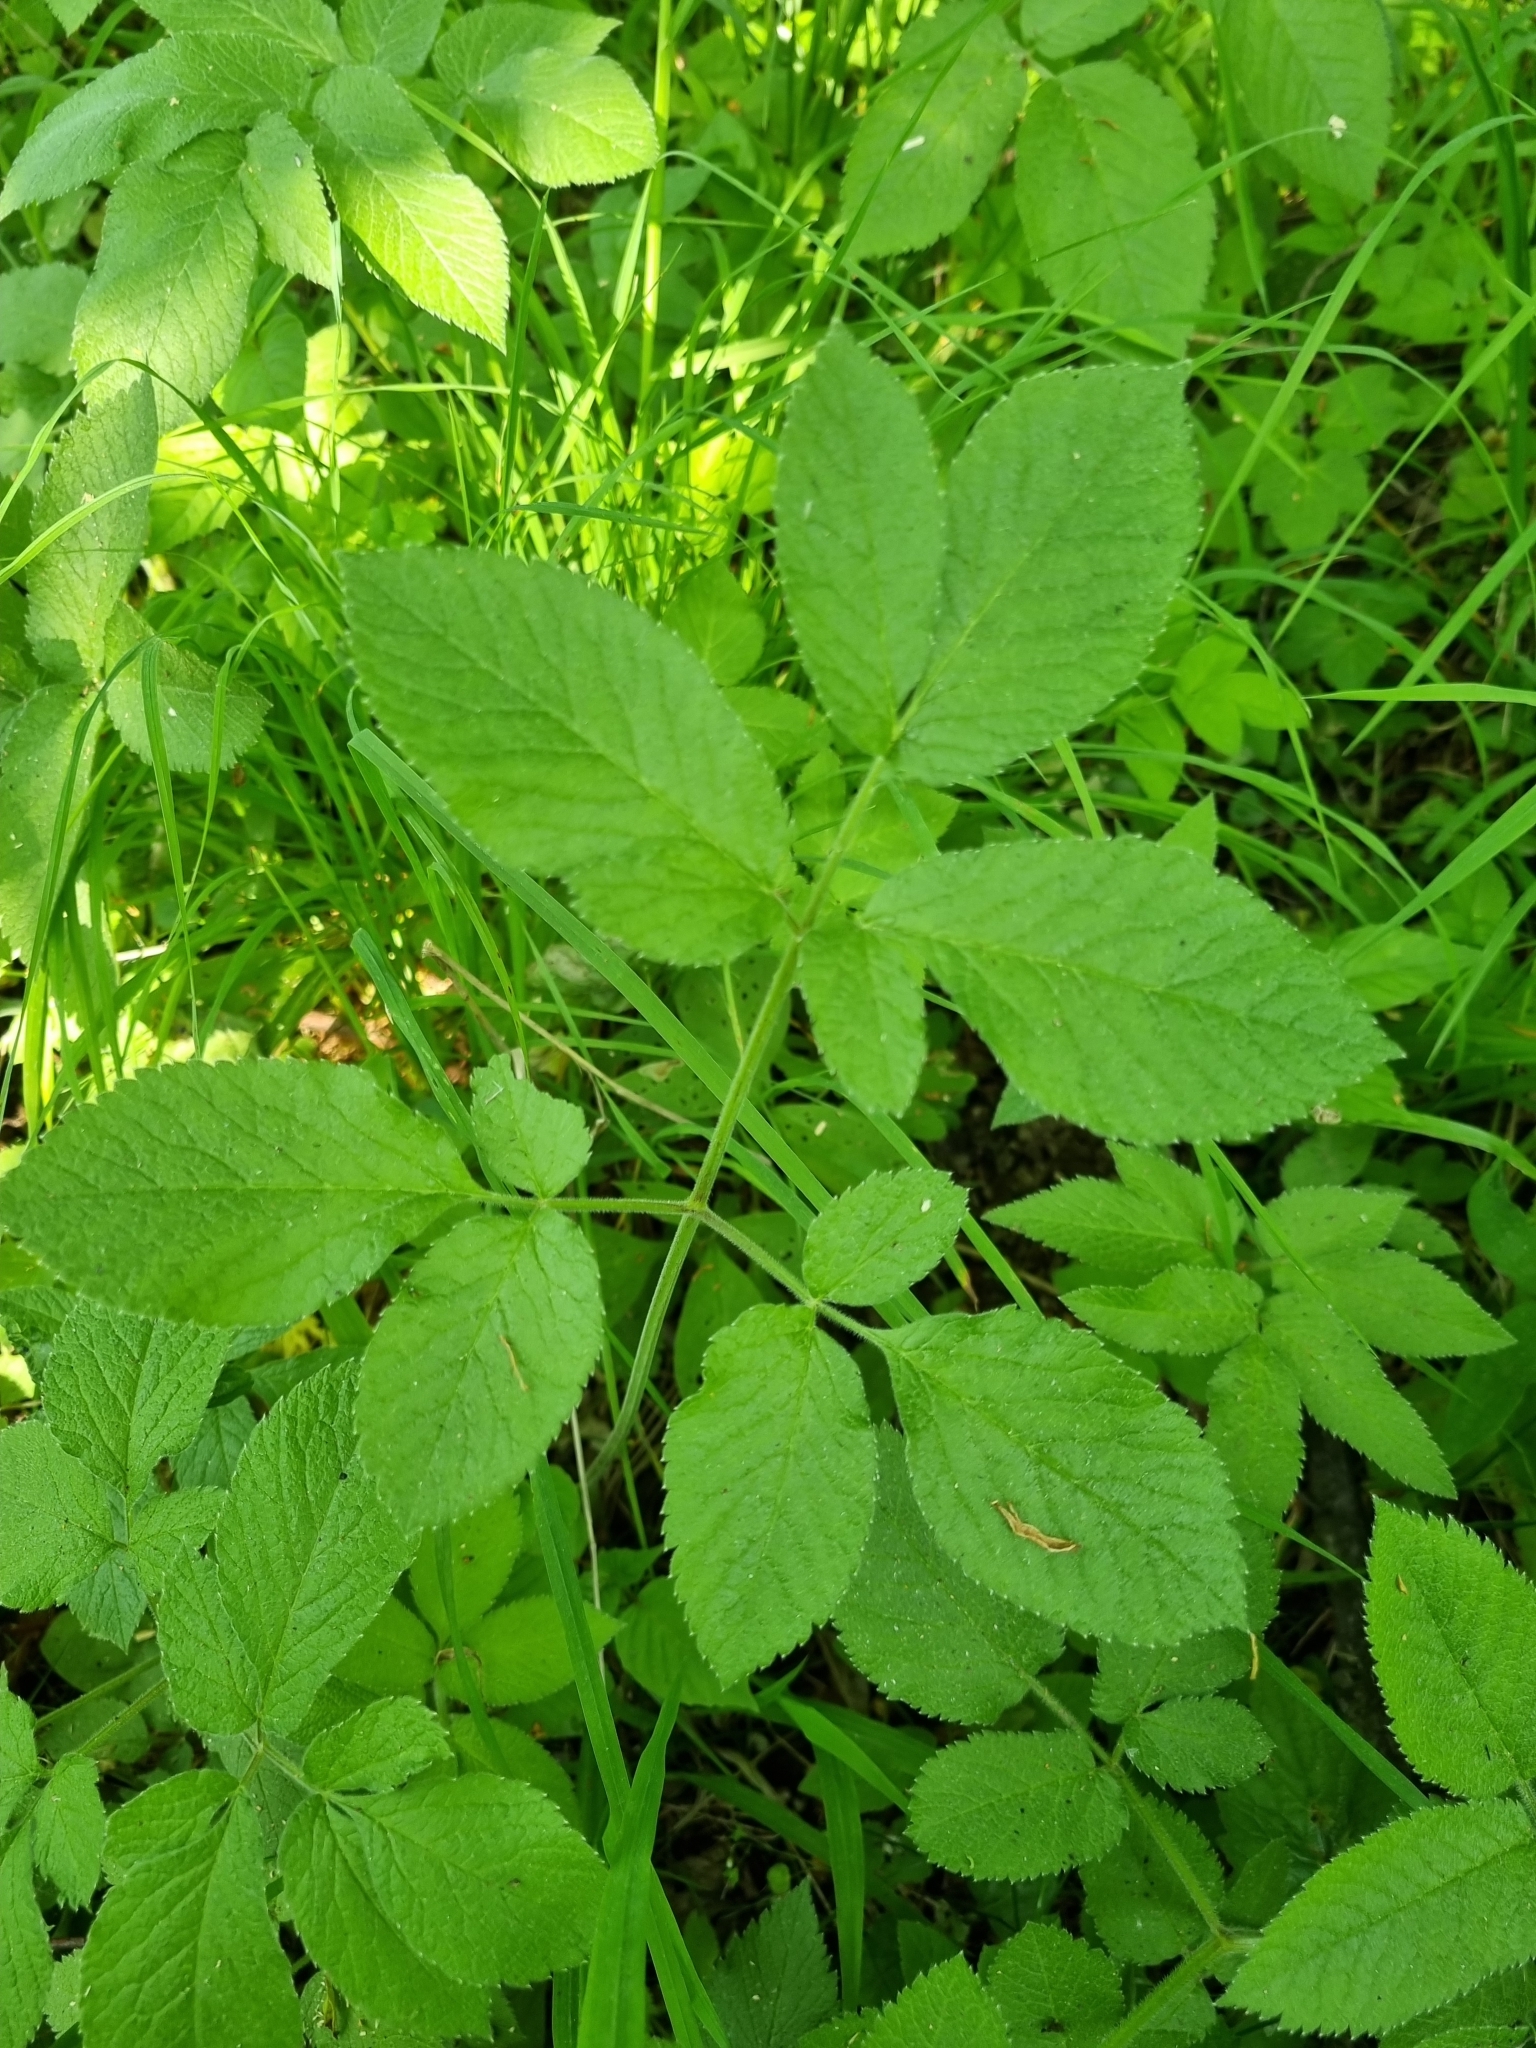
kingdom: Plantae
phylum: Tracheophyta
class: Magnoliopsida
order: Apiales
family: Apiaceae
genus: Chaerophyllum
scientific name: Chaerophyllum aromaticum
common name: Broadleaf chervil
